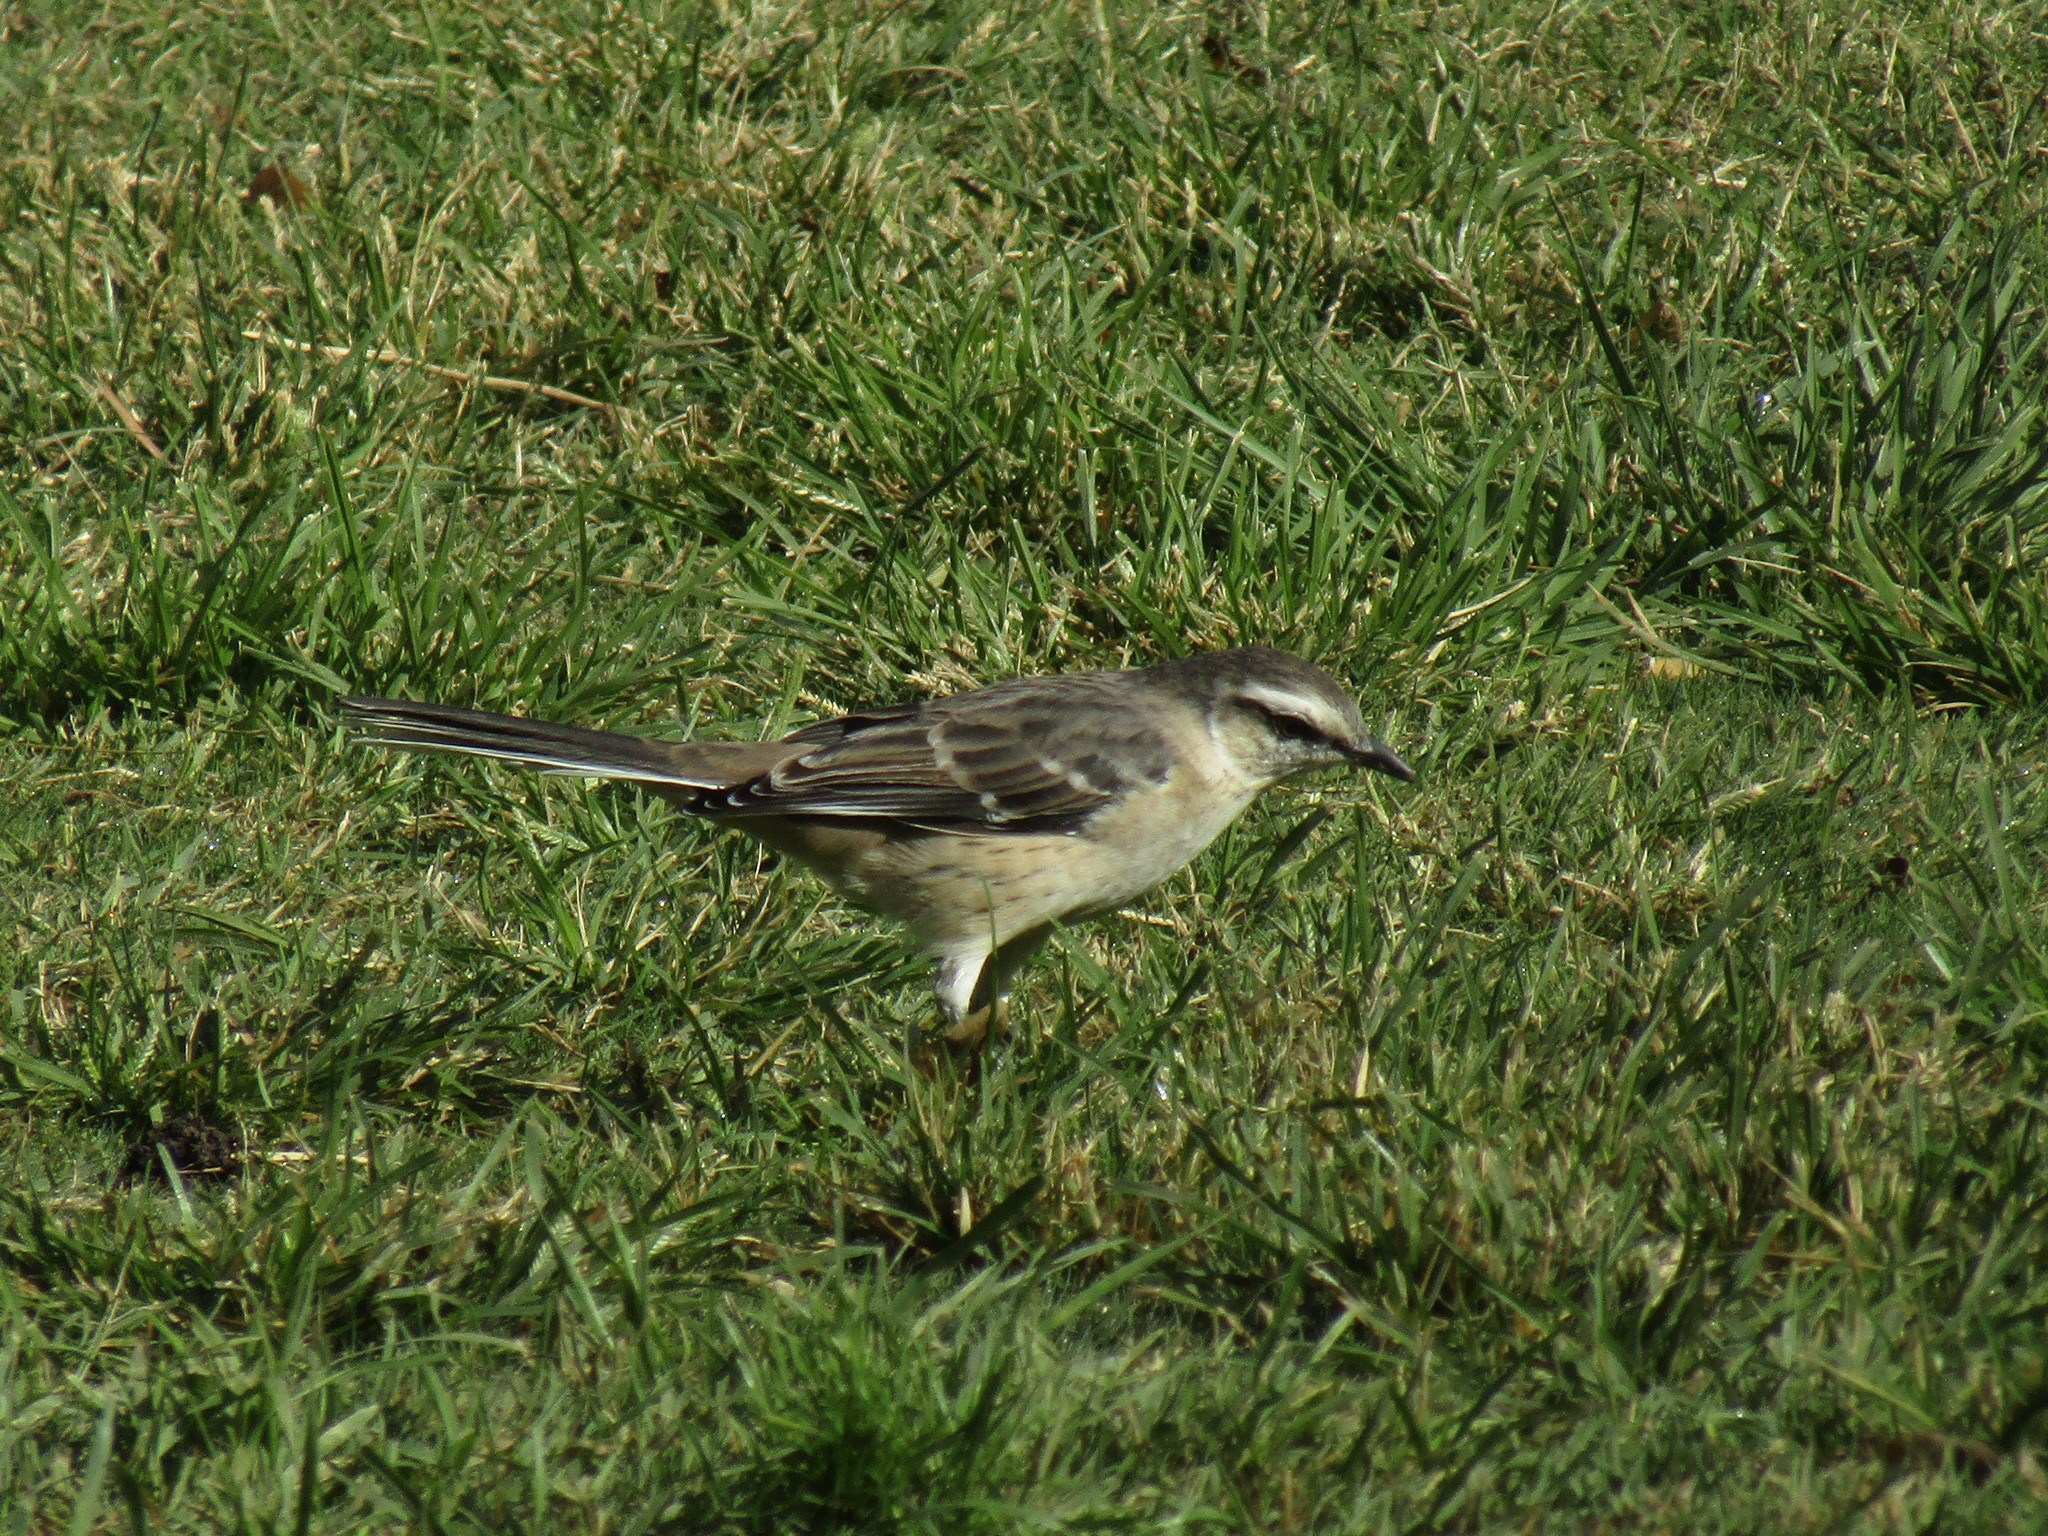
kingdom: Animalia
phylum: Chordata
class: Aves
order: Passeriformes
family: Mimidae
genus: Mimus
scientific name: Mimus saturninus
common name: Chalk-browed mockingbird
